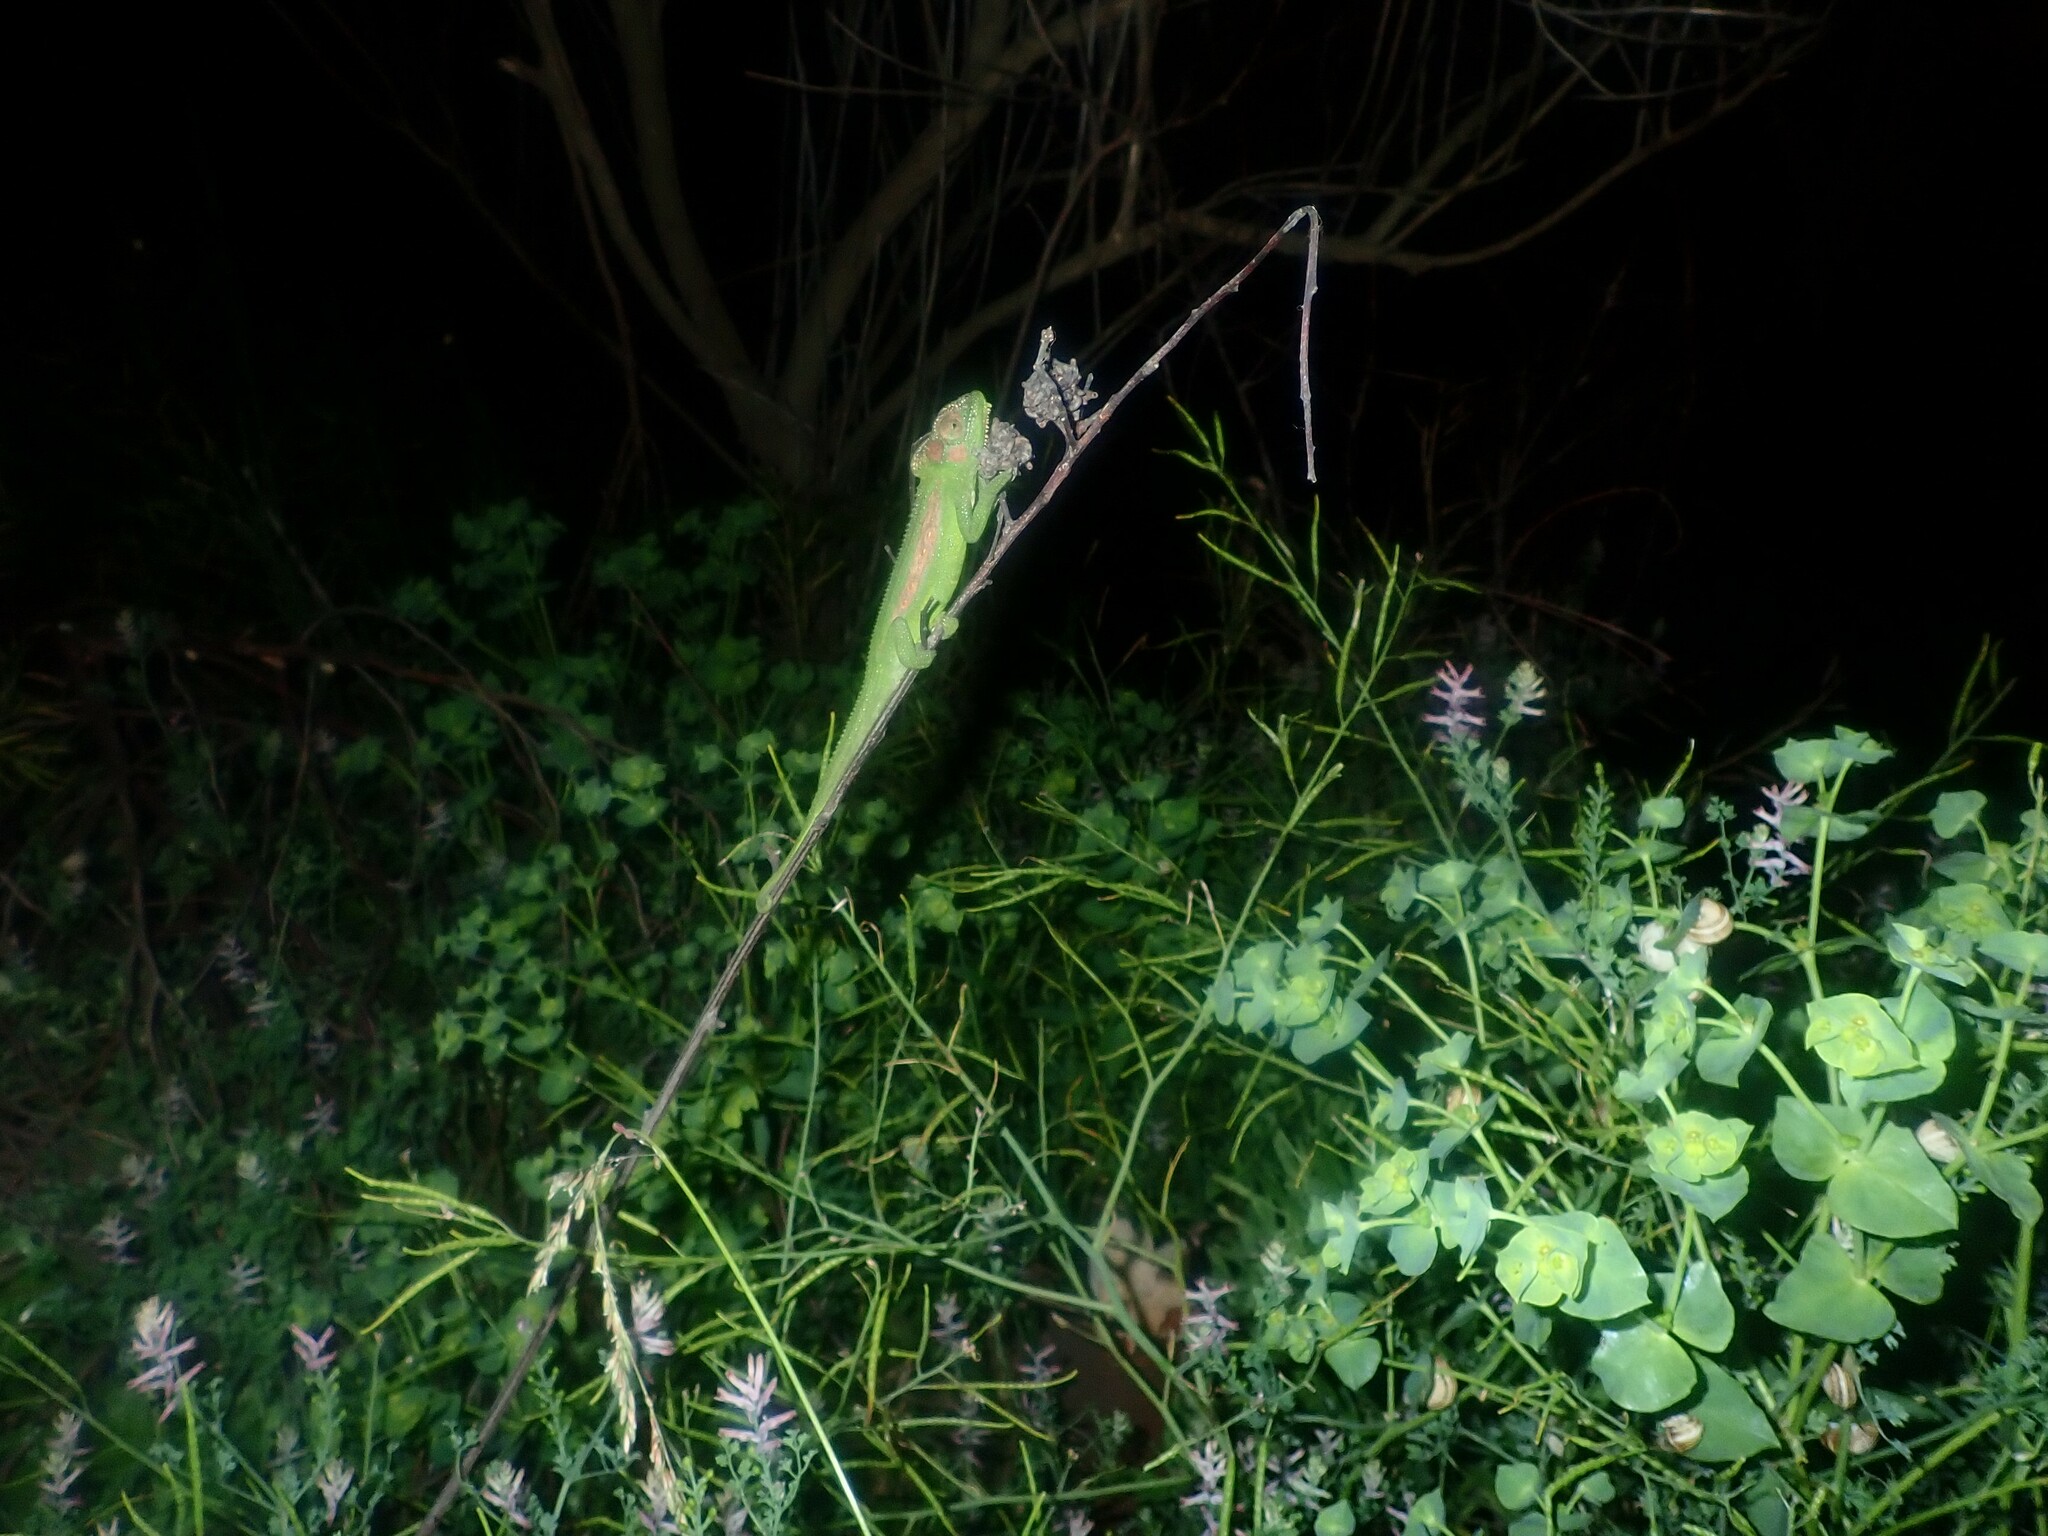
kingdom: Animalia
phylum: Chordata
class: Squamata
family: Chamaeleonidae
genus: Bradypodion
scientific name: Bradypodion pumilum
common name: Cape dwarf chameleon
